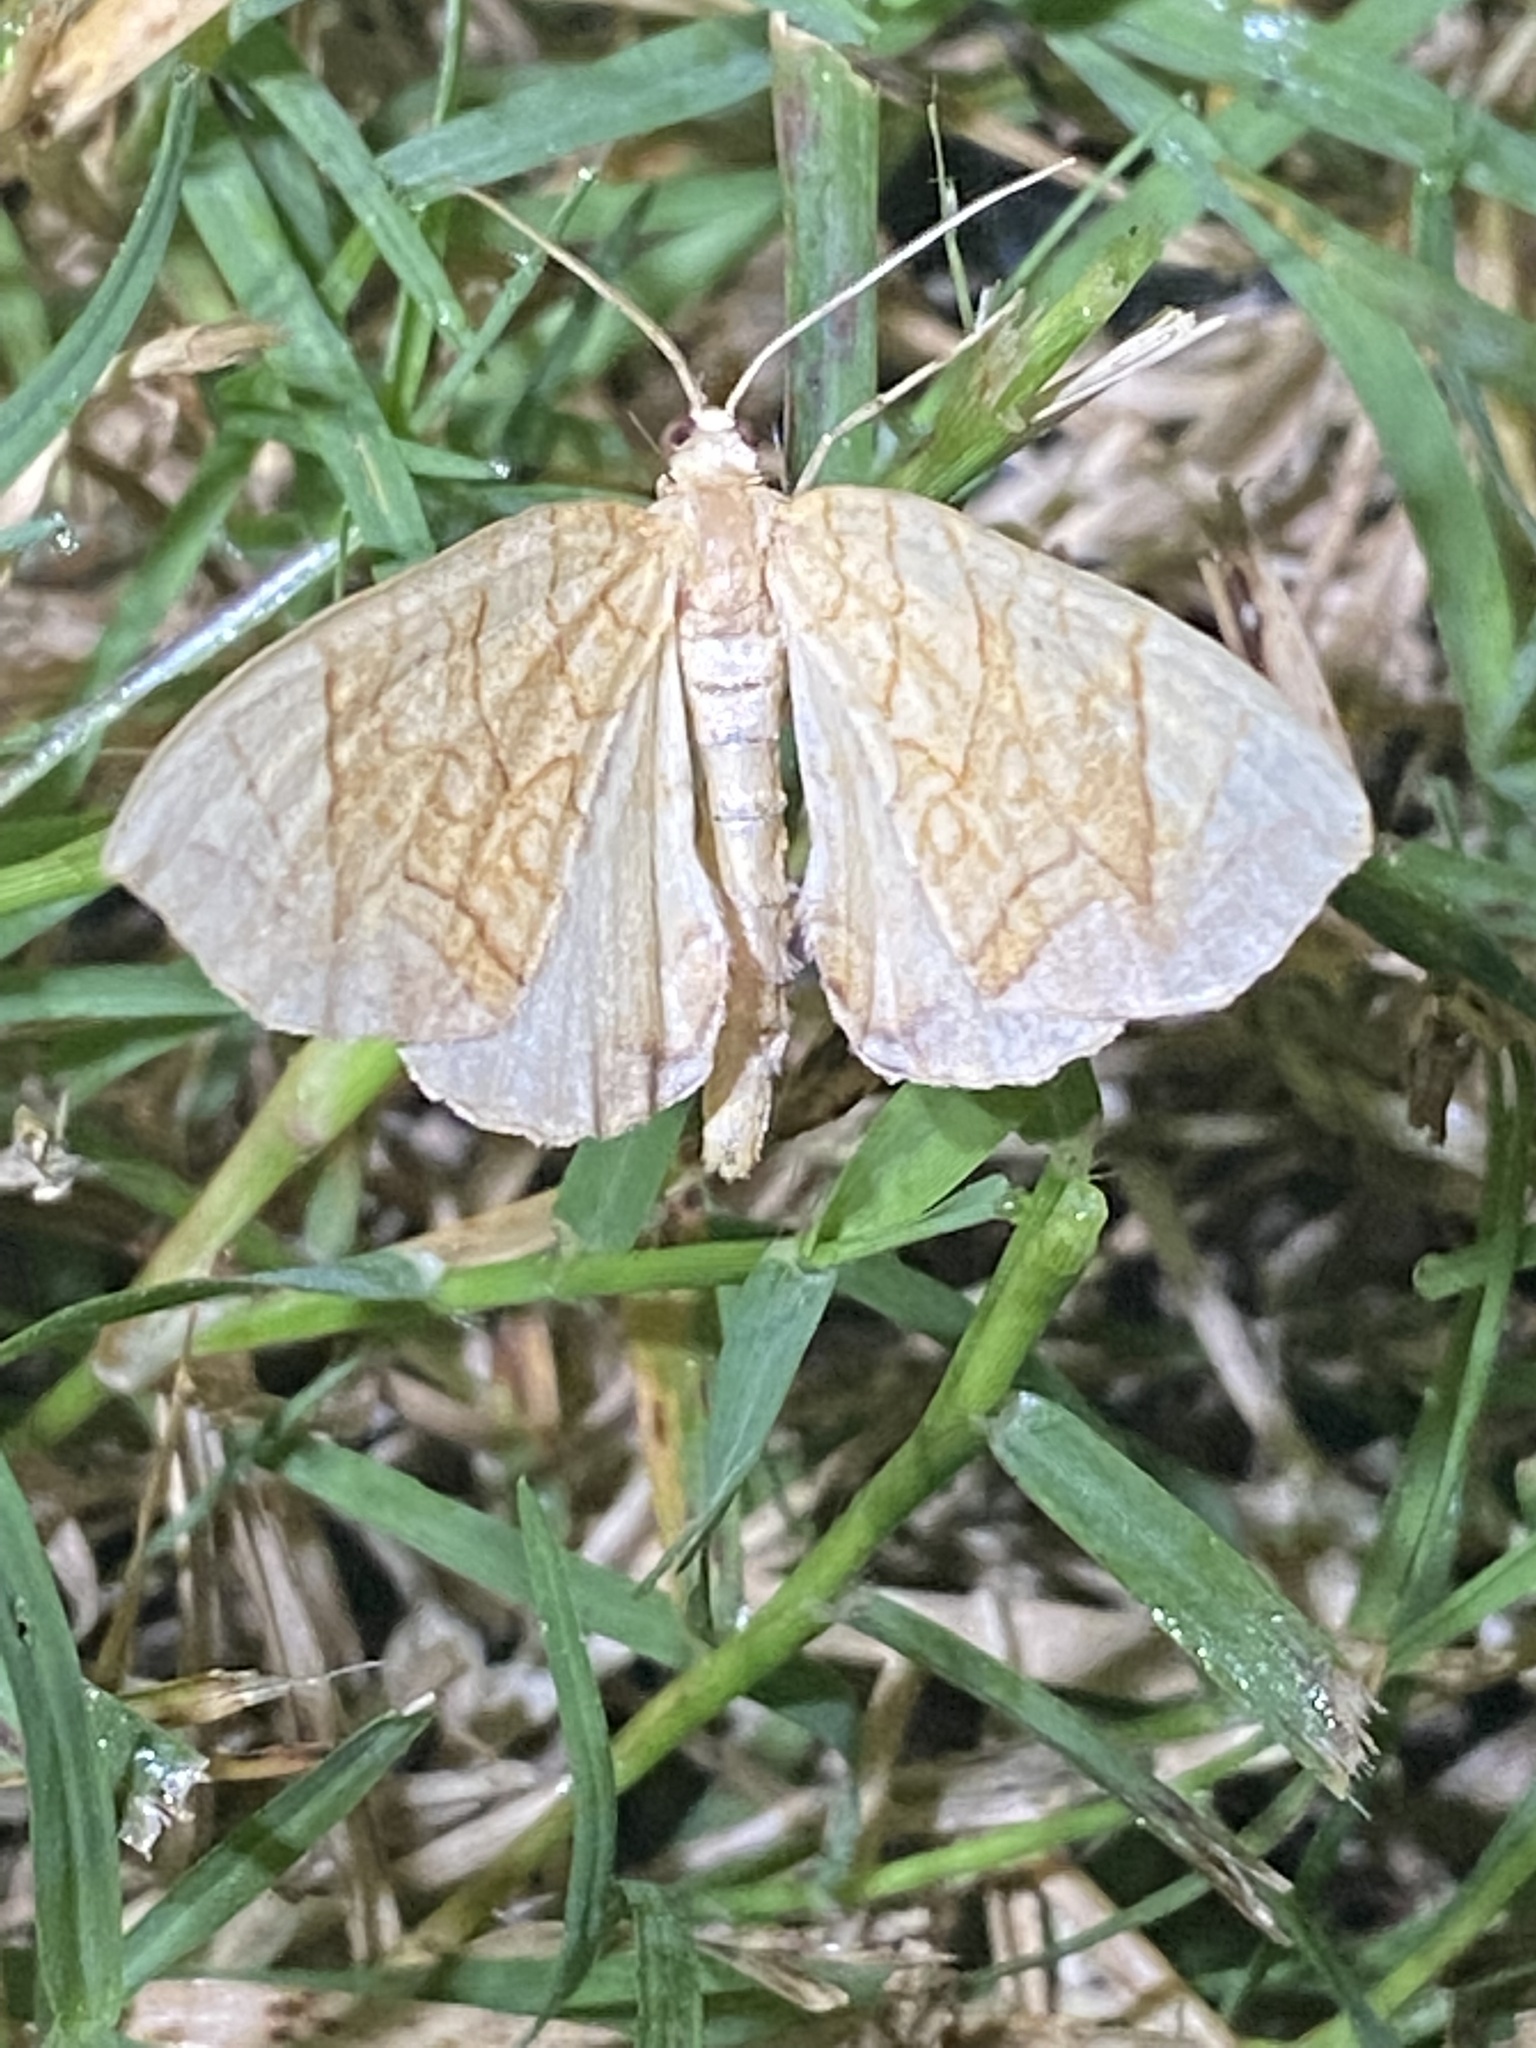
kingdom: Animalia
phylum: Arthropoda
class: Insecta
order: Lepidoptera
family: Geometridae
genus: Eulithis
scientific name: Eulithis
